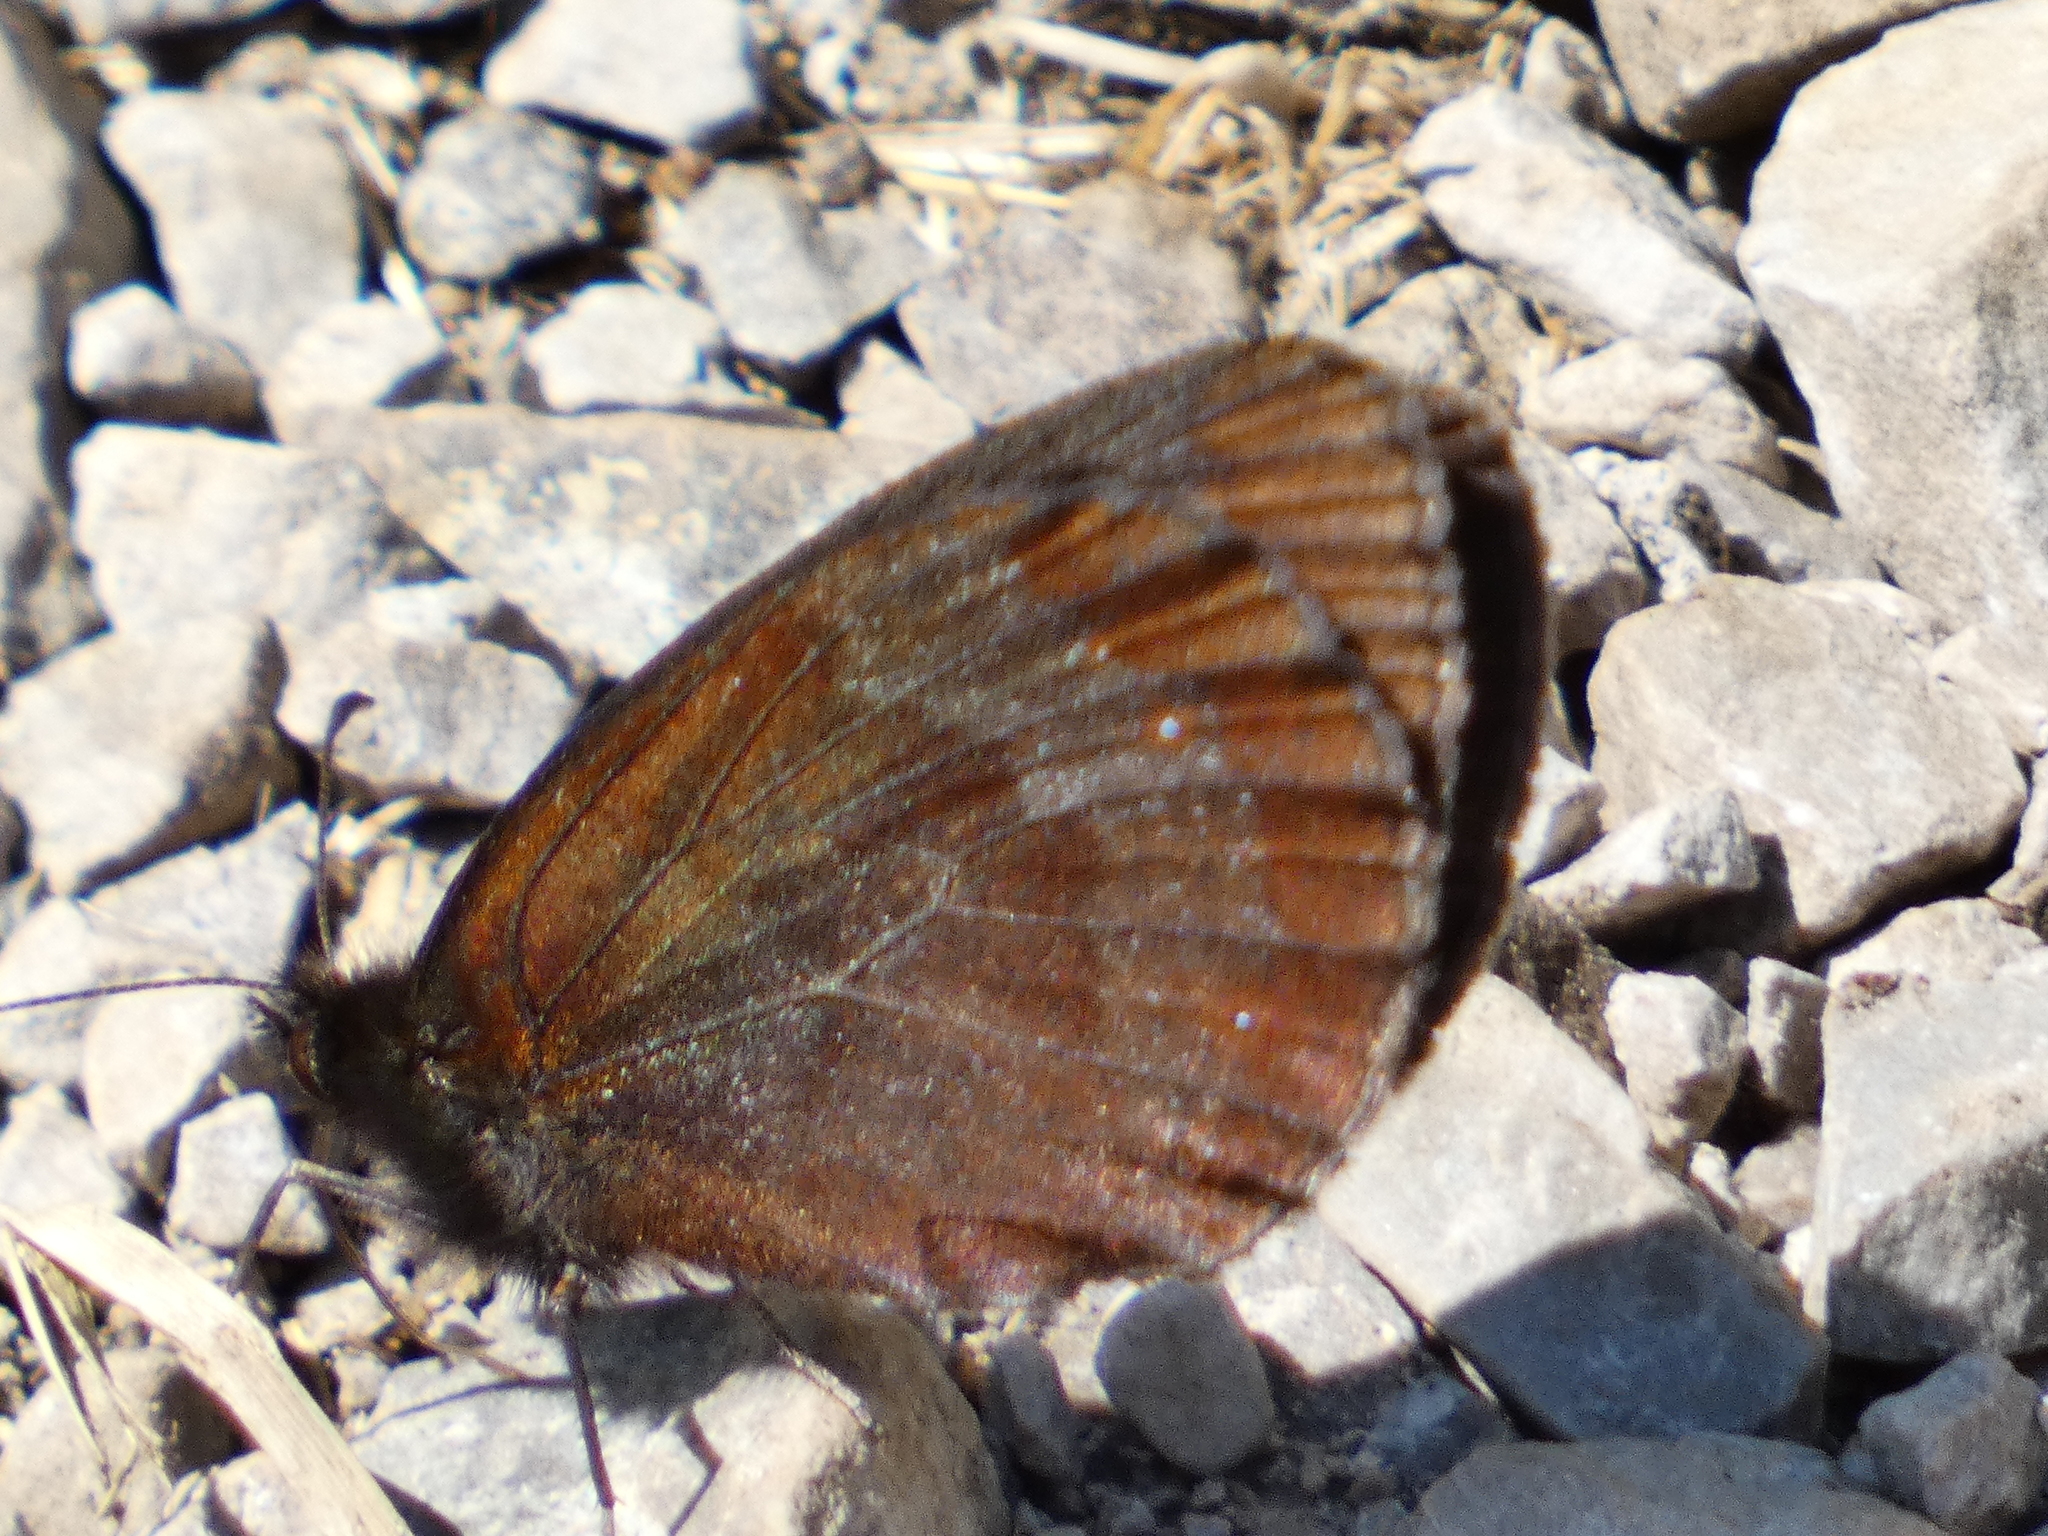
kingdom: Animalia
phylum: Arthropoda
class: Insecta
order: Lepidoptera
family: Nymphalidae
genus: Erebia
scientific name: Erebia aethiops
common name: Scotch argus
